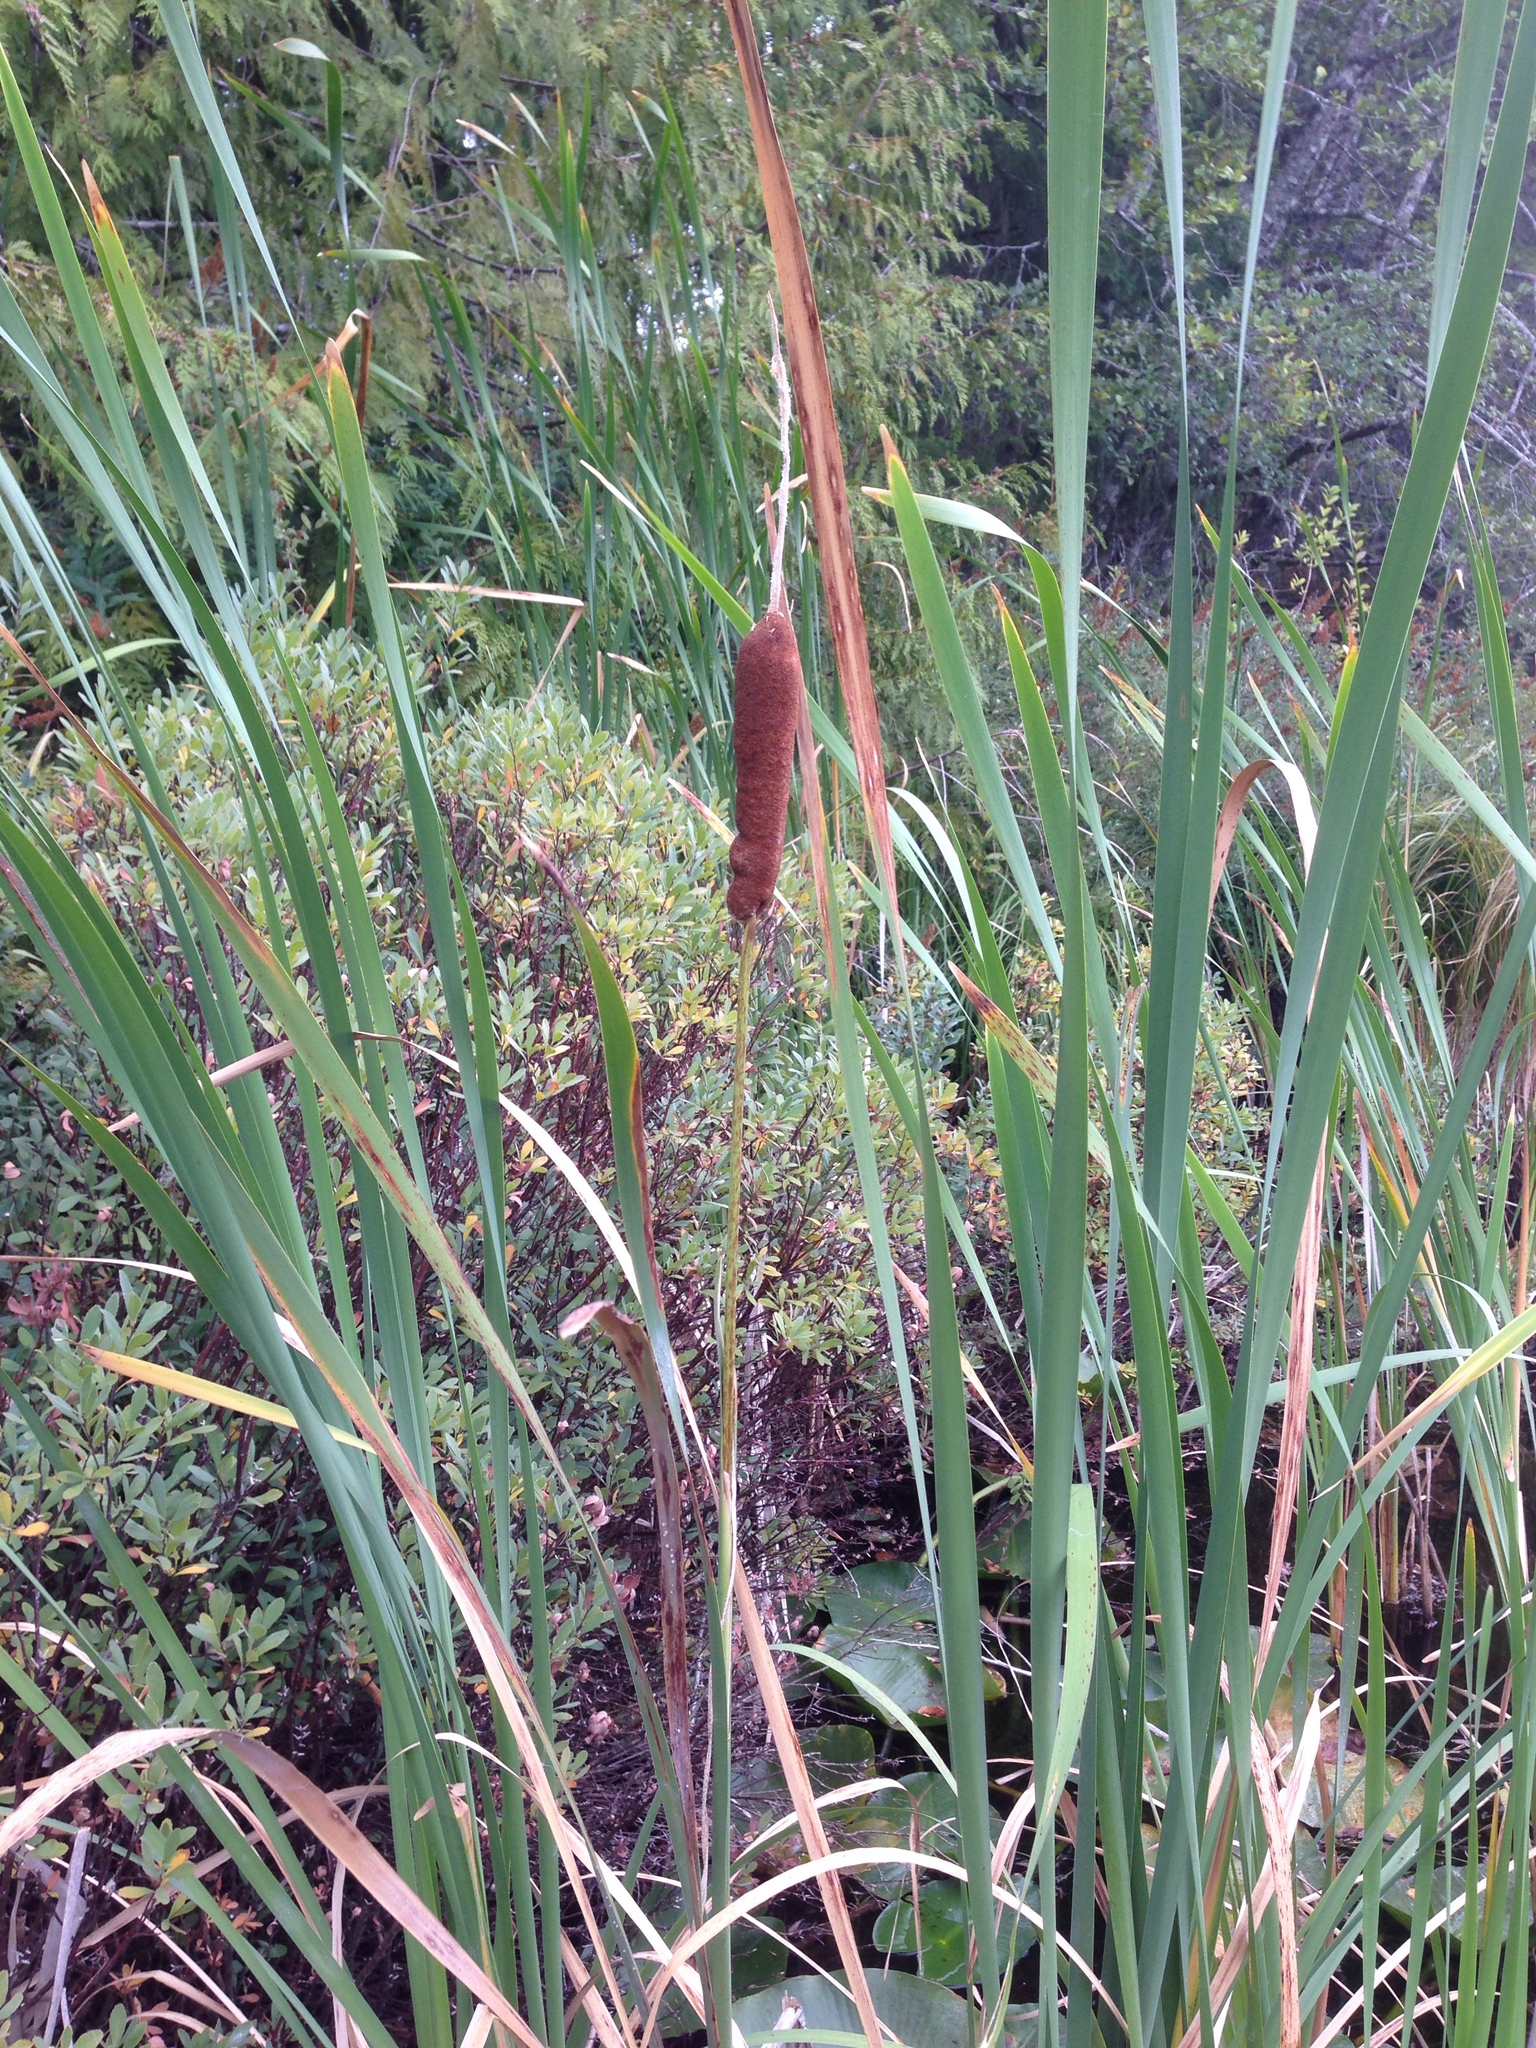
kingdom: Plantae
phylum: Tracheophyta
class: Liliopsida
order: Poales
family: Typhaceae
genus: Typha
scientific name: Typha latifolia
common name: Broadleaf cattail
